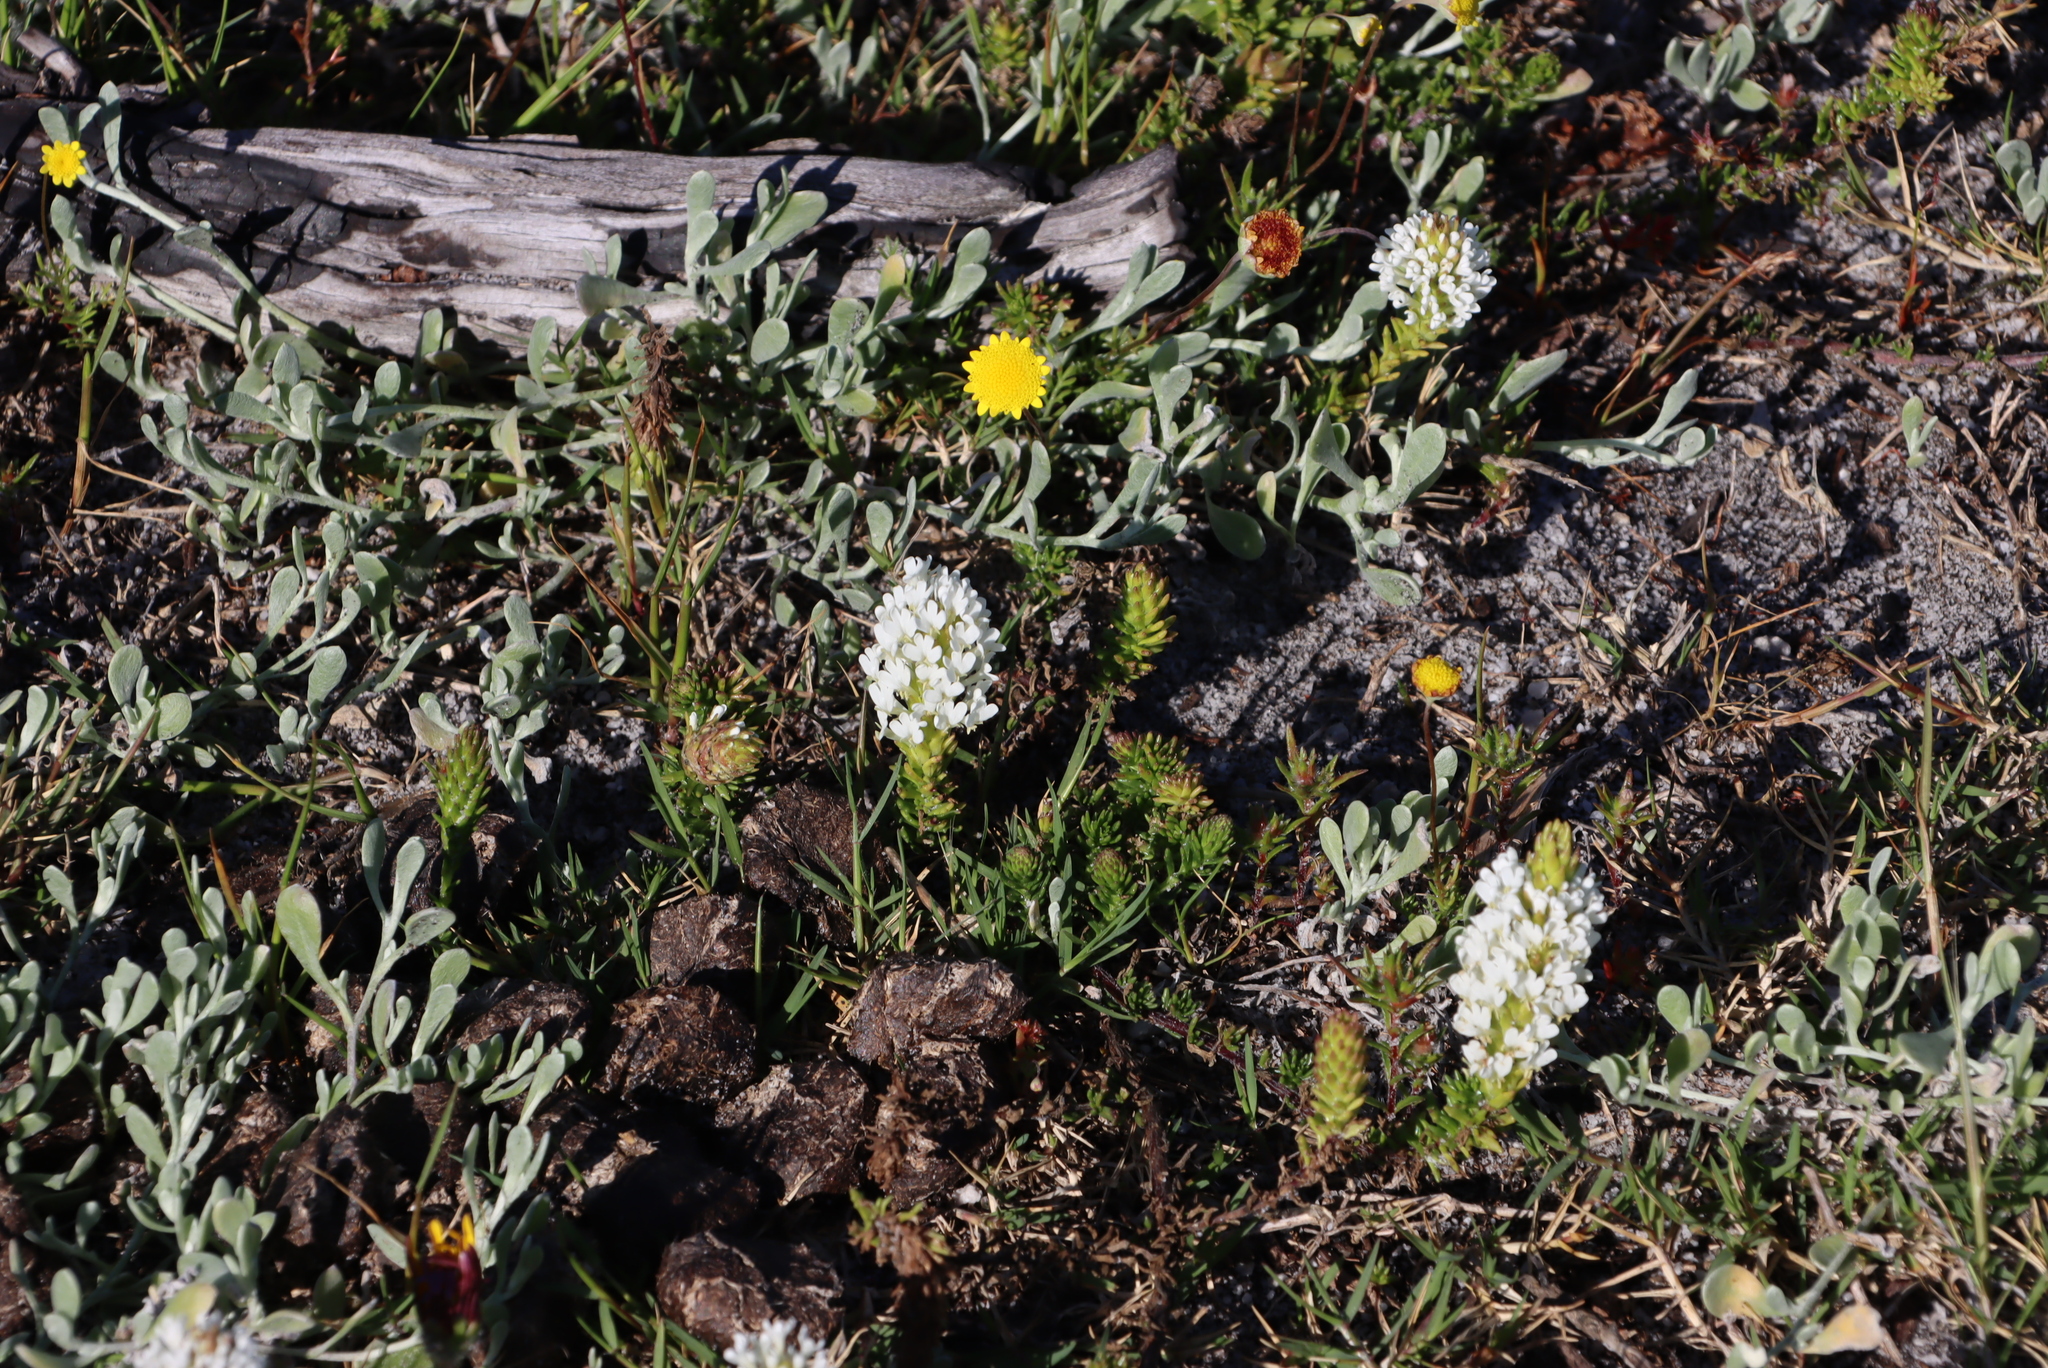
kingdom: Plantae
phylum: Tracheophyta
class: Magnoliopsida
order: Lamiales
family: Scrophulariaceae
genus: Dischisma
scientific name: Dischisma ciliatum
